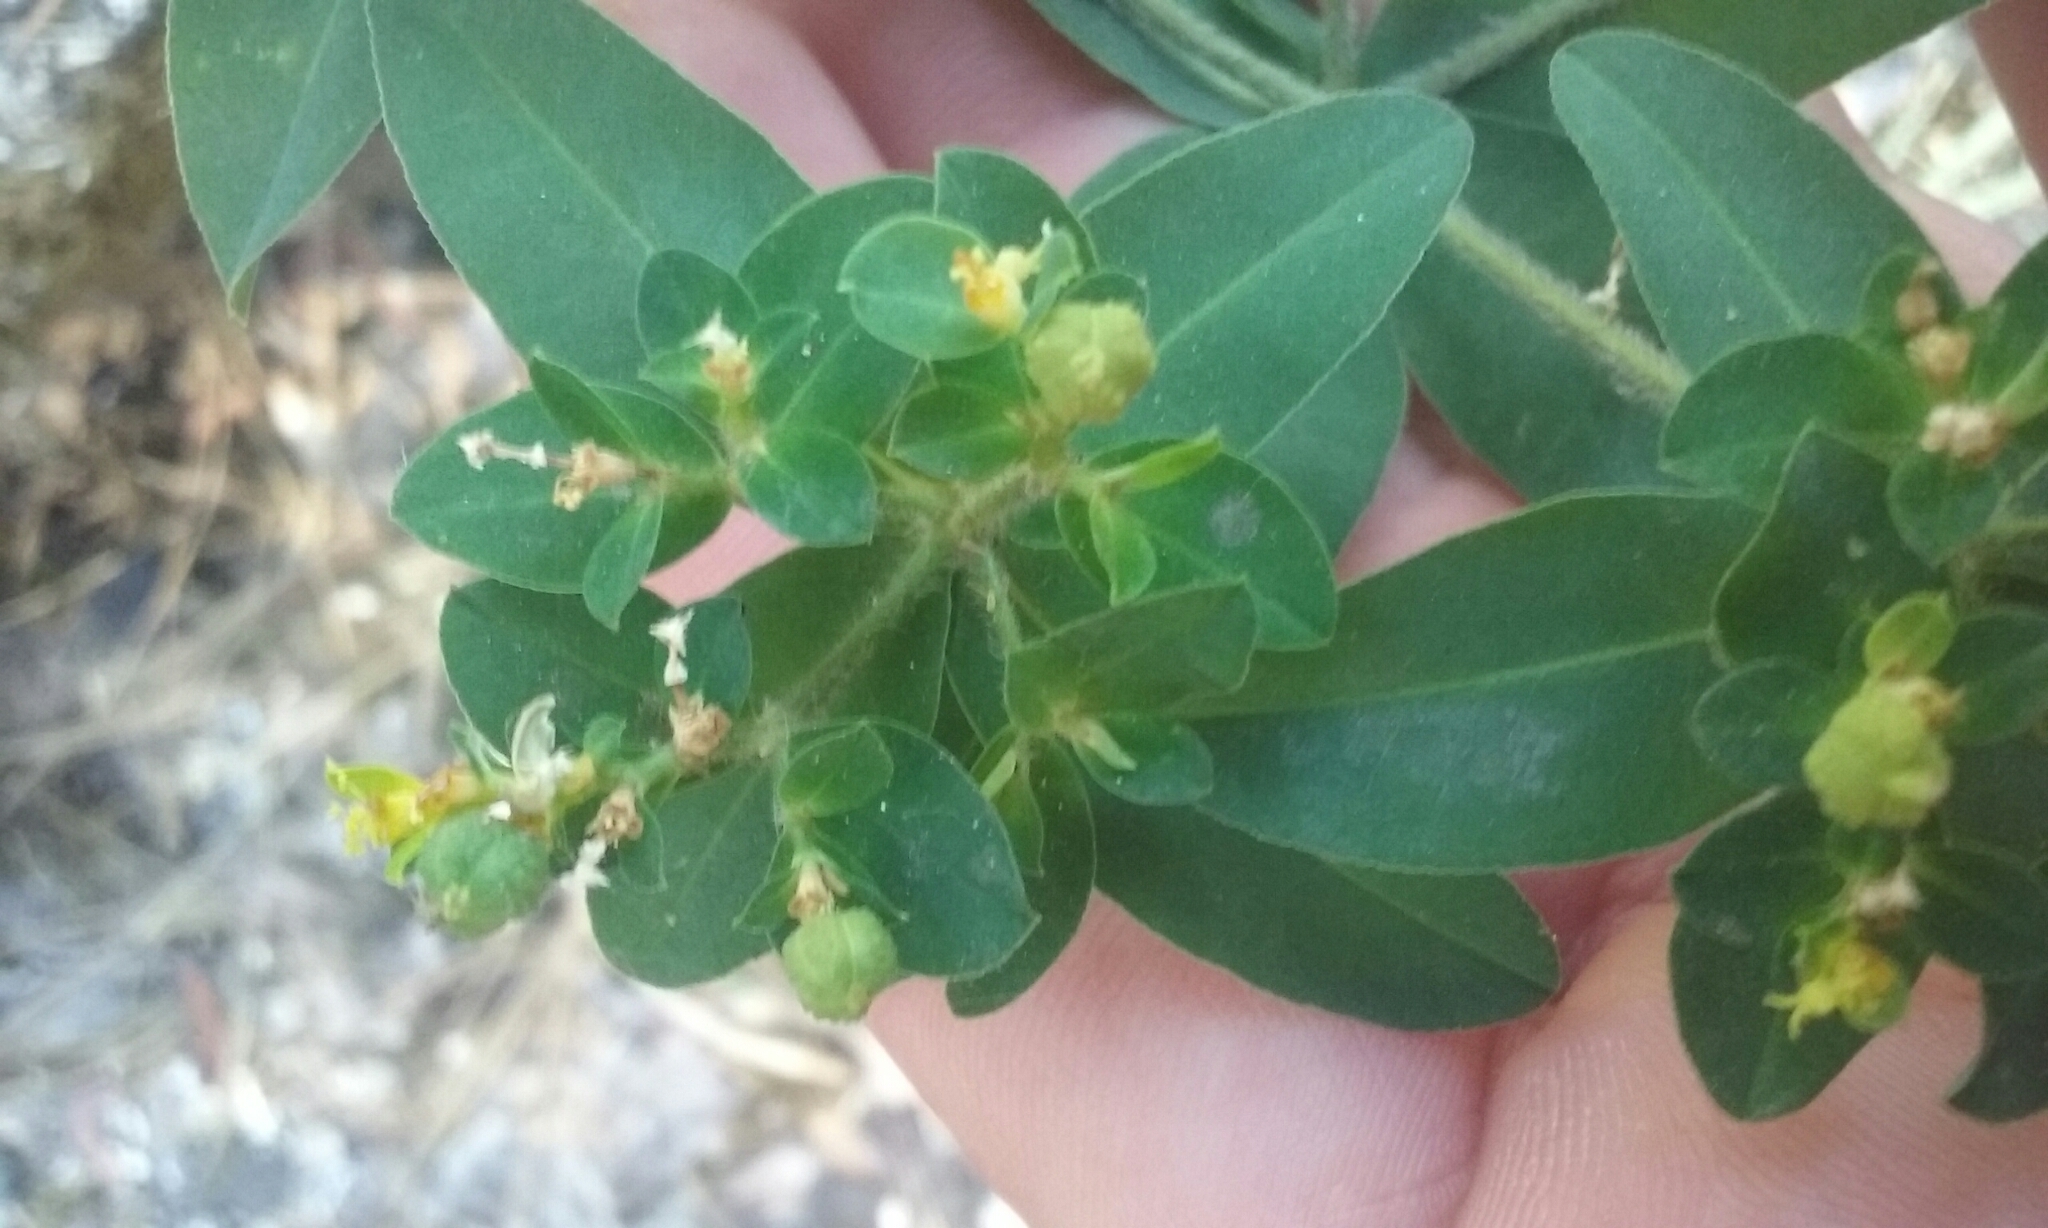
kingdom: Plantae
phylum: Tracheophyta
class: Magnoliopsida
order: Malpighiales
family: Euphorbiaceae
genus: Euphorbia
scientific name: Euphorbia oblongata
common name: Balkan spurge
